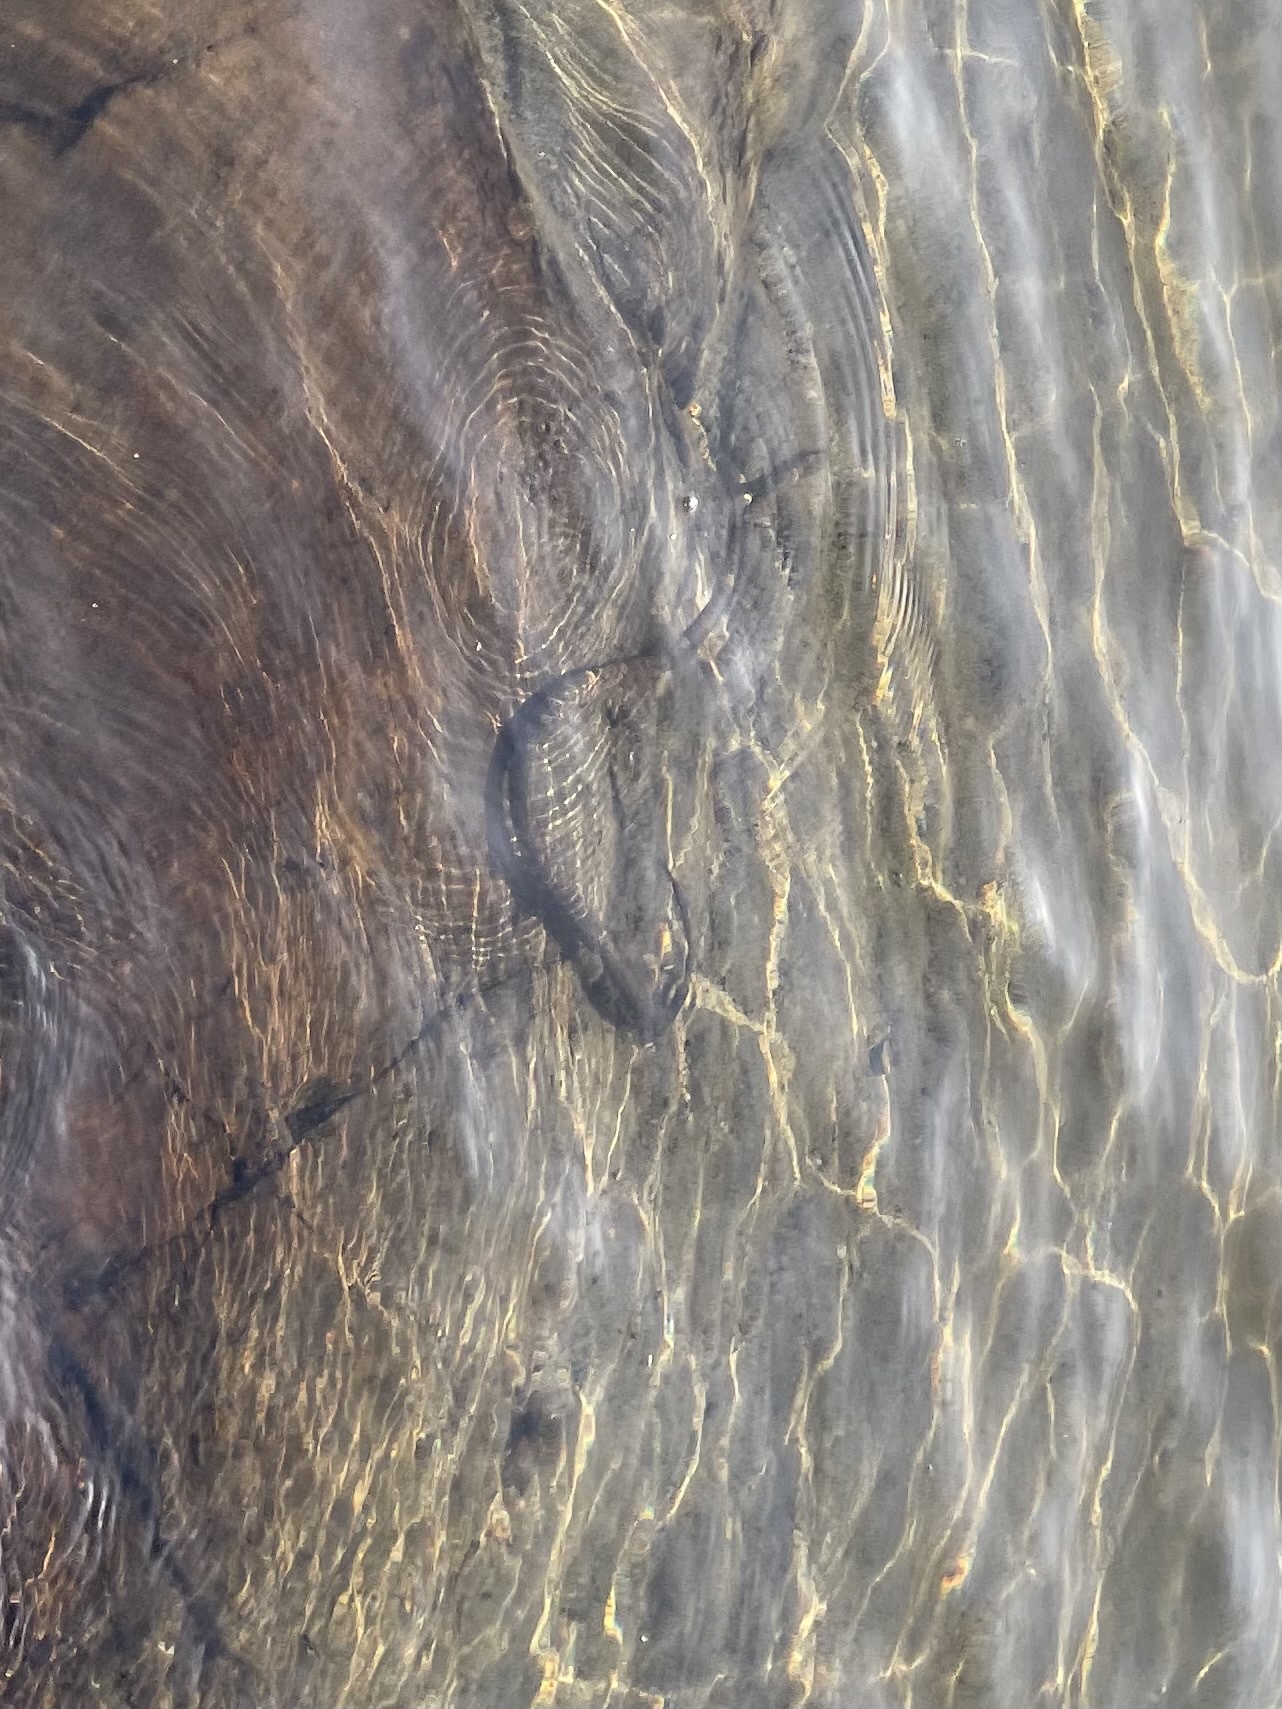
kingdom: Animalia
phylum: Chordata
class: Squamata
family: Colubridae
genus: Nerodia
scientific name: Nerodia sipedon
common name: Northern water snake
